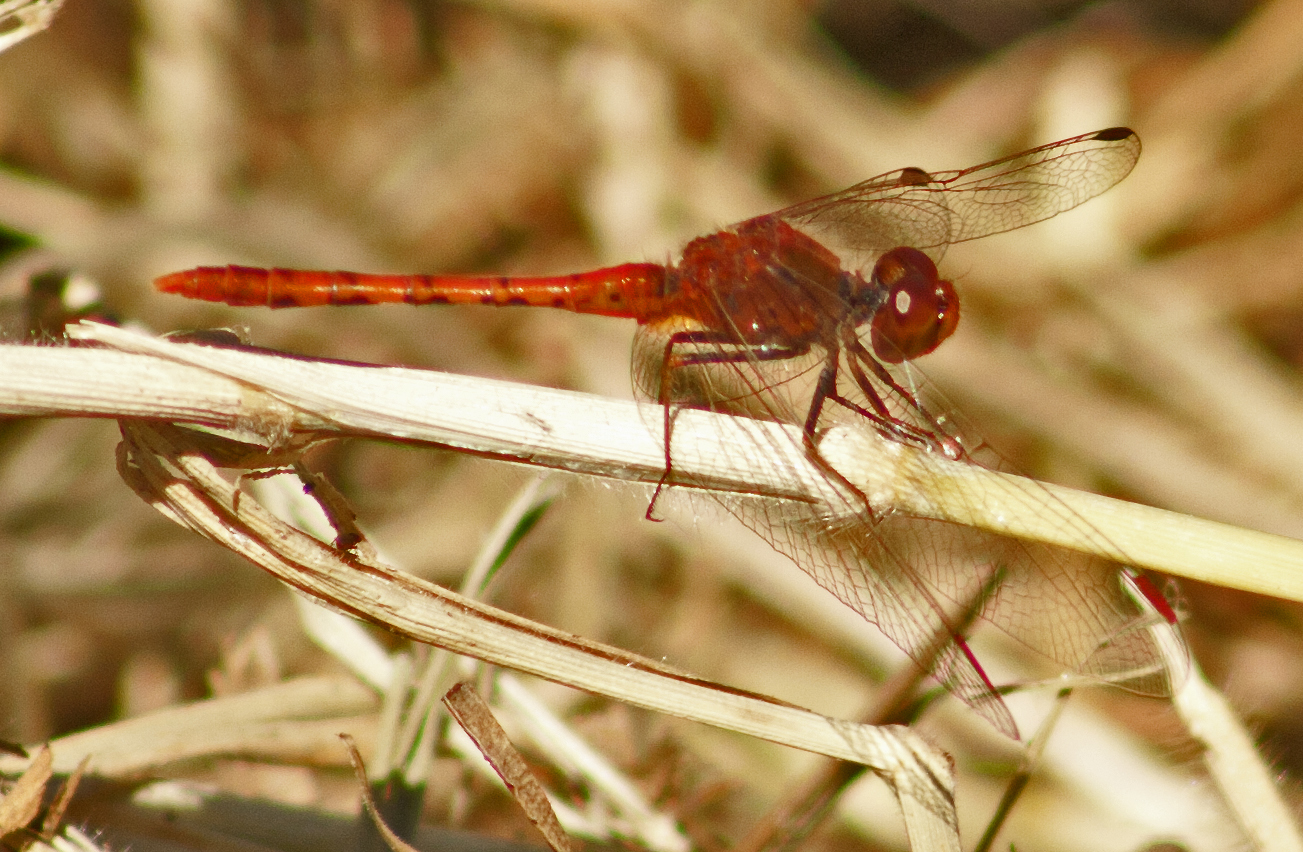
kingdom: Animalia
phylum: Arthropoda
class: Insecta
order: Odonata
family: Libellulidae
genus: Diplacodes
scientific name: Diplacodes bipunctata
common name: Red percher dragonfly
